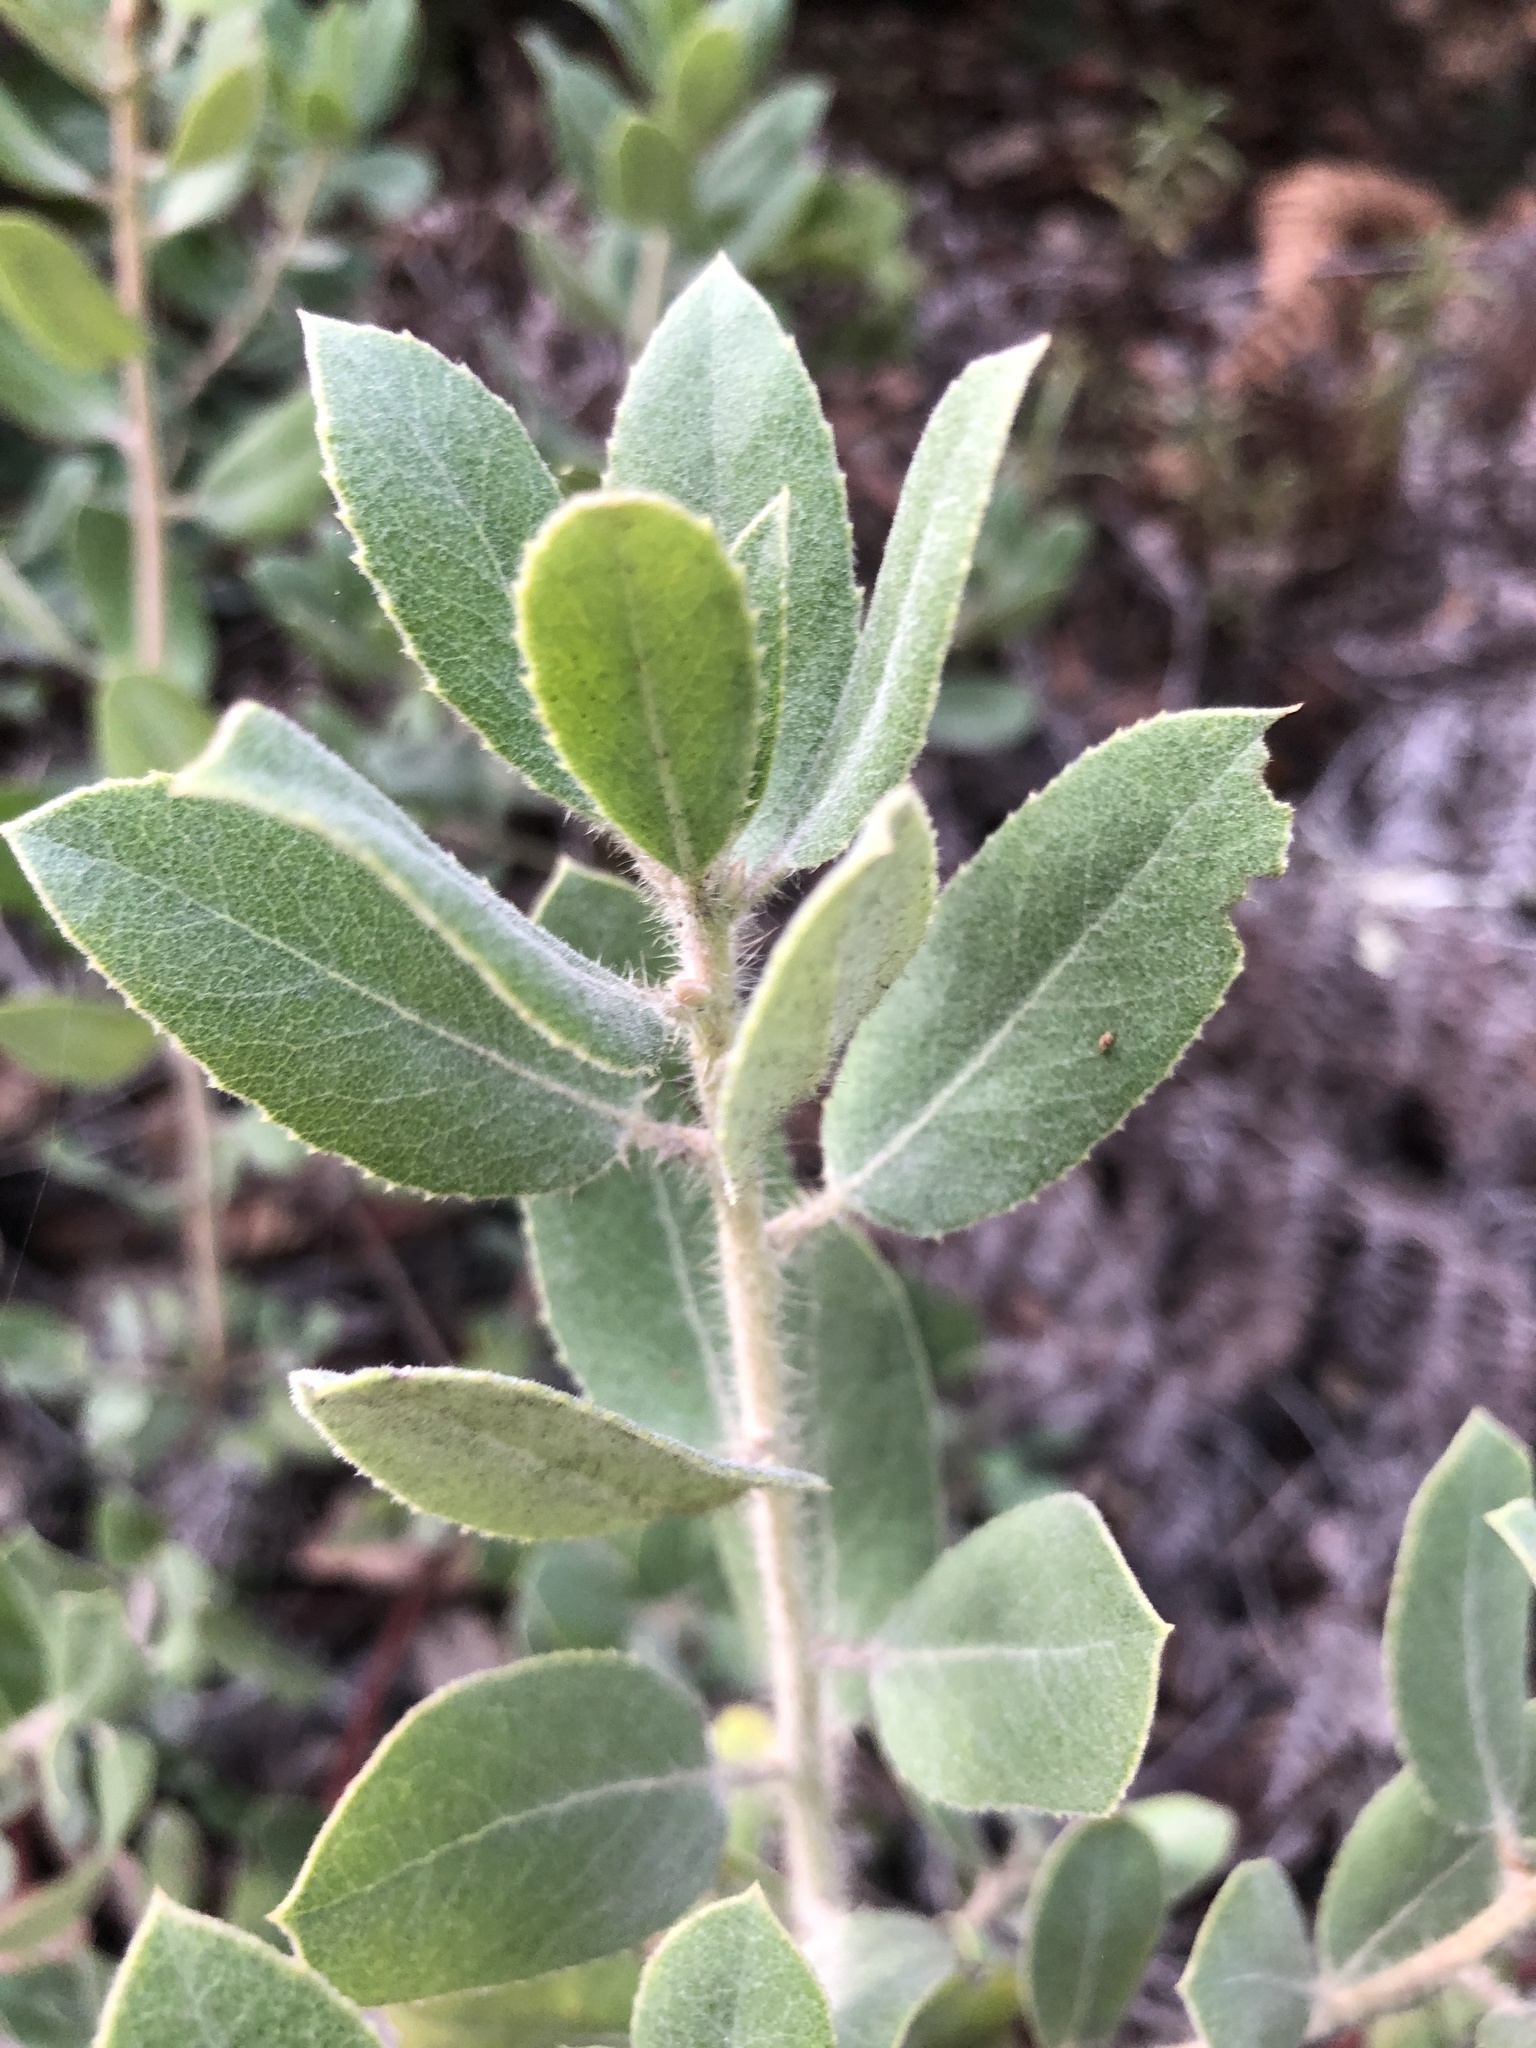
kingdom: Plantae
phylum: Tracheophyta
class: Magnoliopsida
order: Ericales
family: Ericaceae
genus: Arctostaphylos
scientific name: Arctostaphylos crustacea
